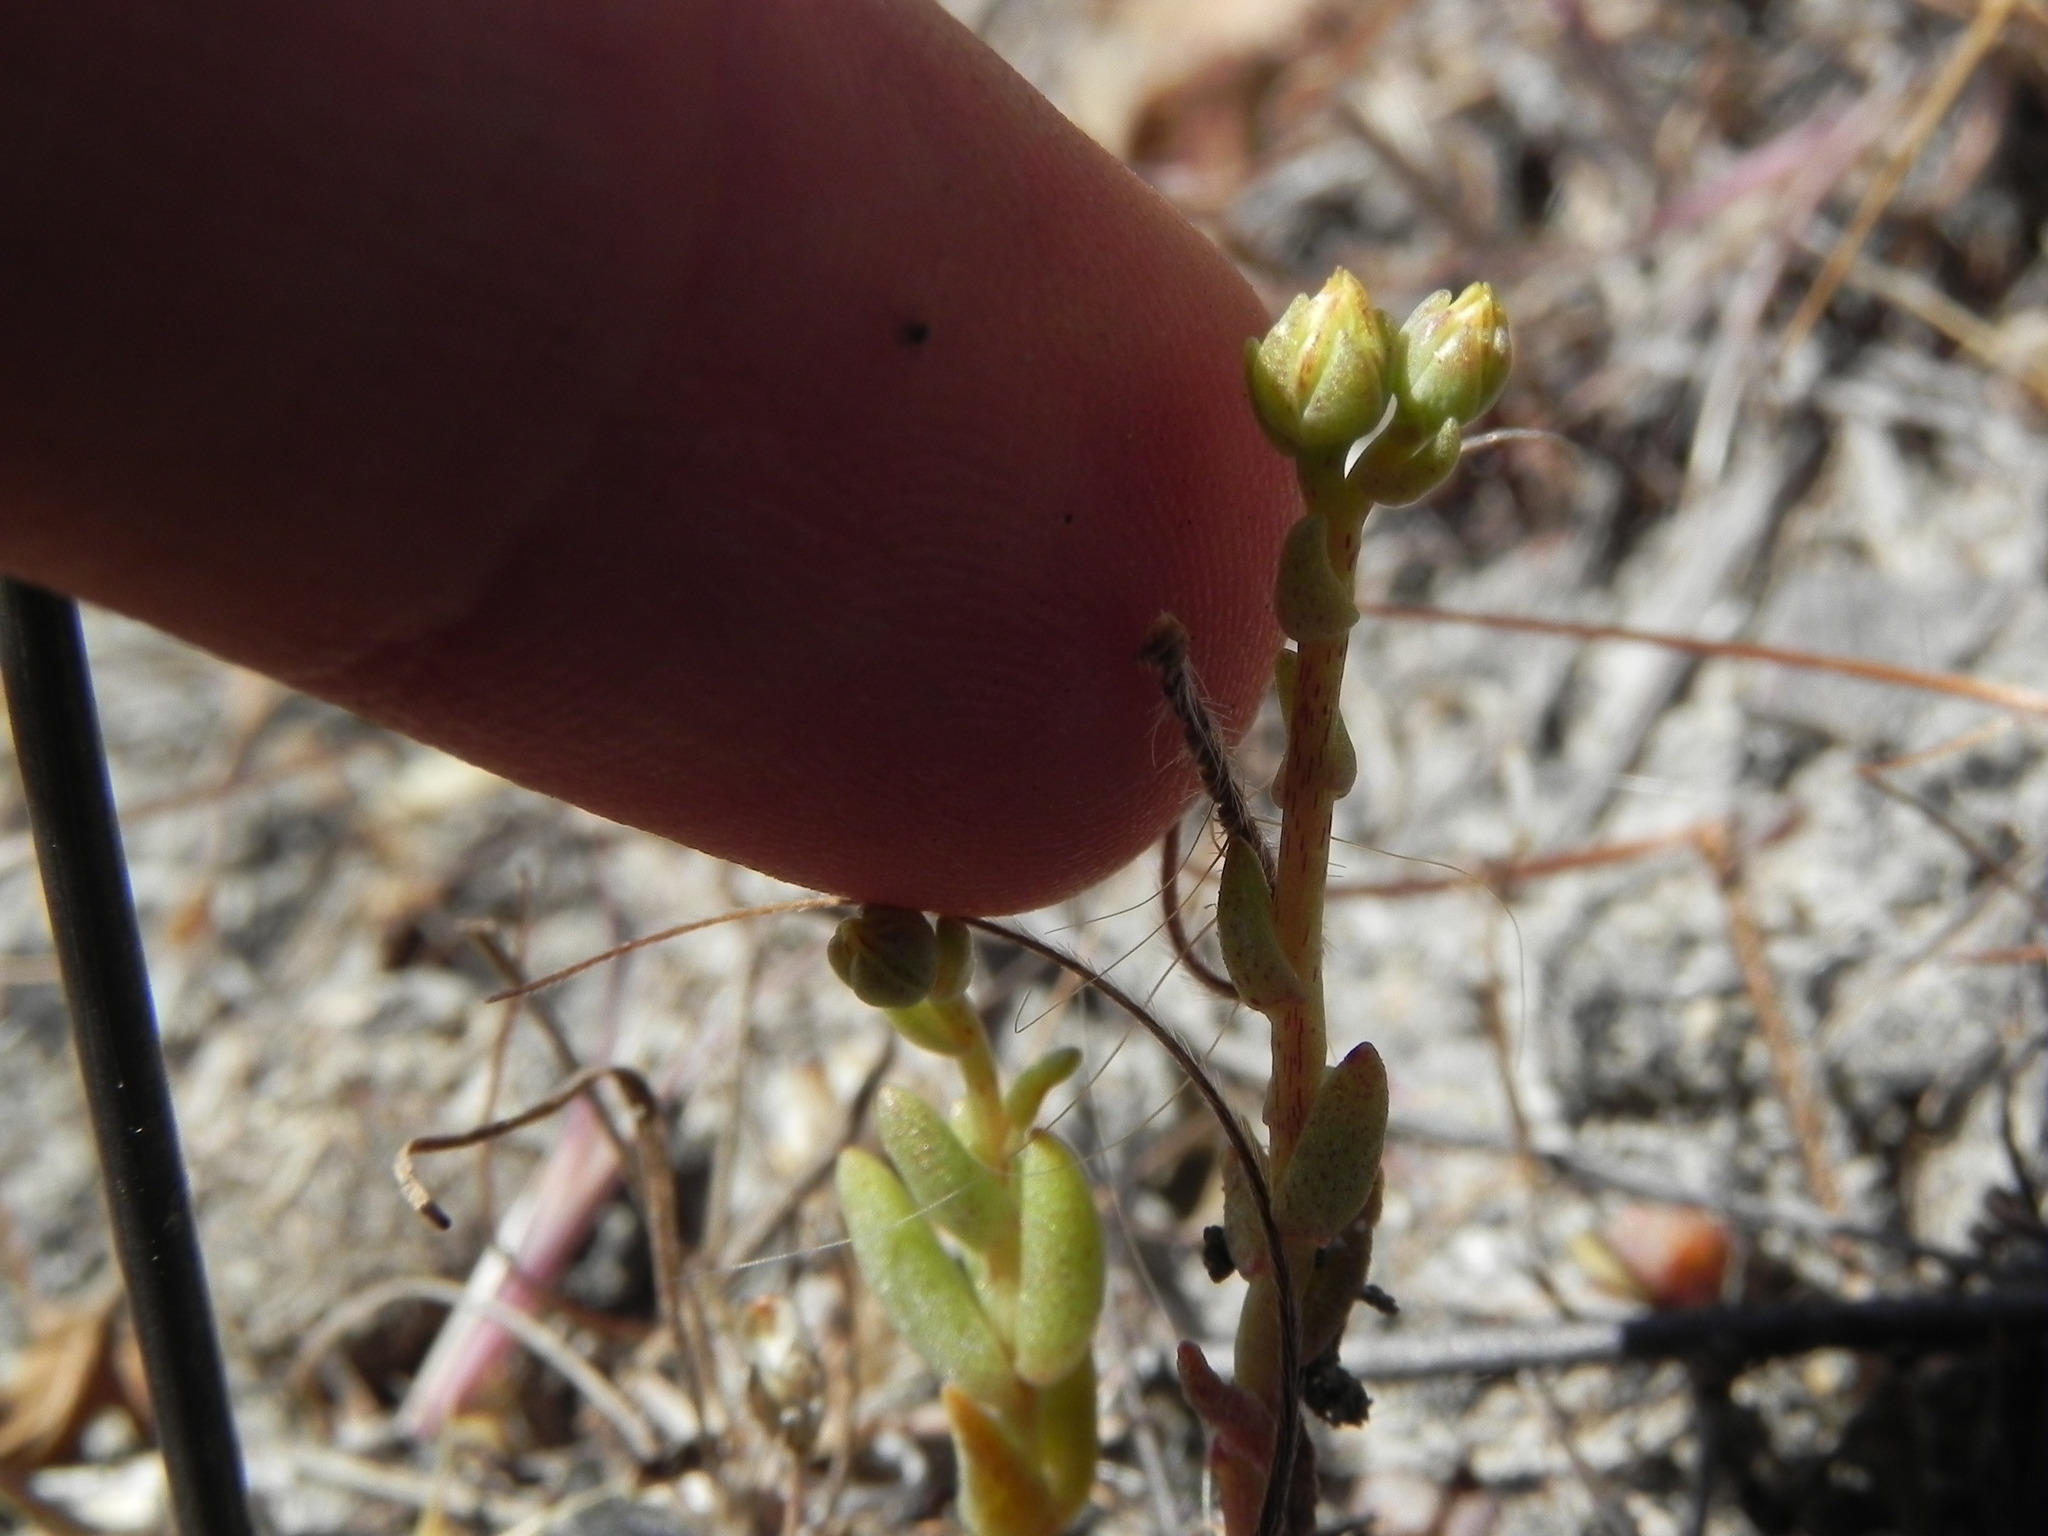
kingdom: Plantae
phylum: Tracheophyta
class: Magnoliopsida
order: Saxifragales
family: Crassulaceae
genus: Dudleya
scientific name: Dudleya variegata
